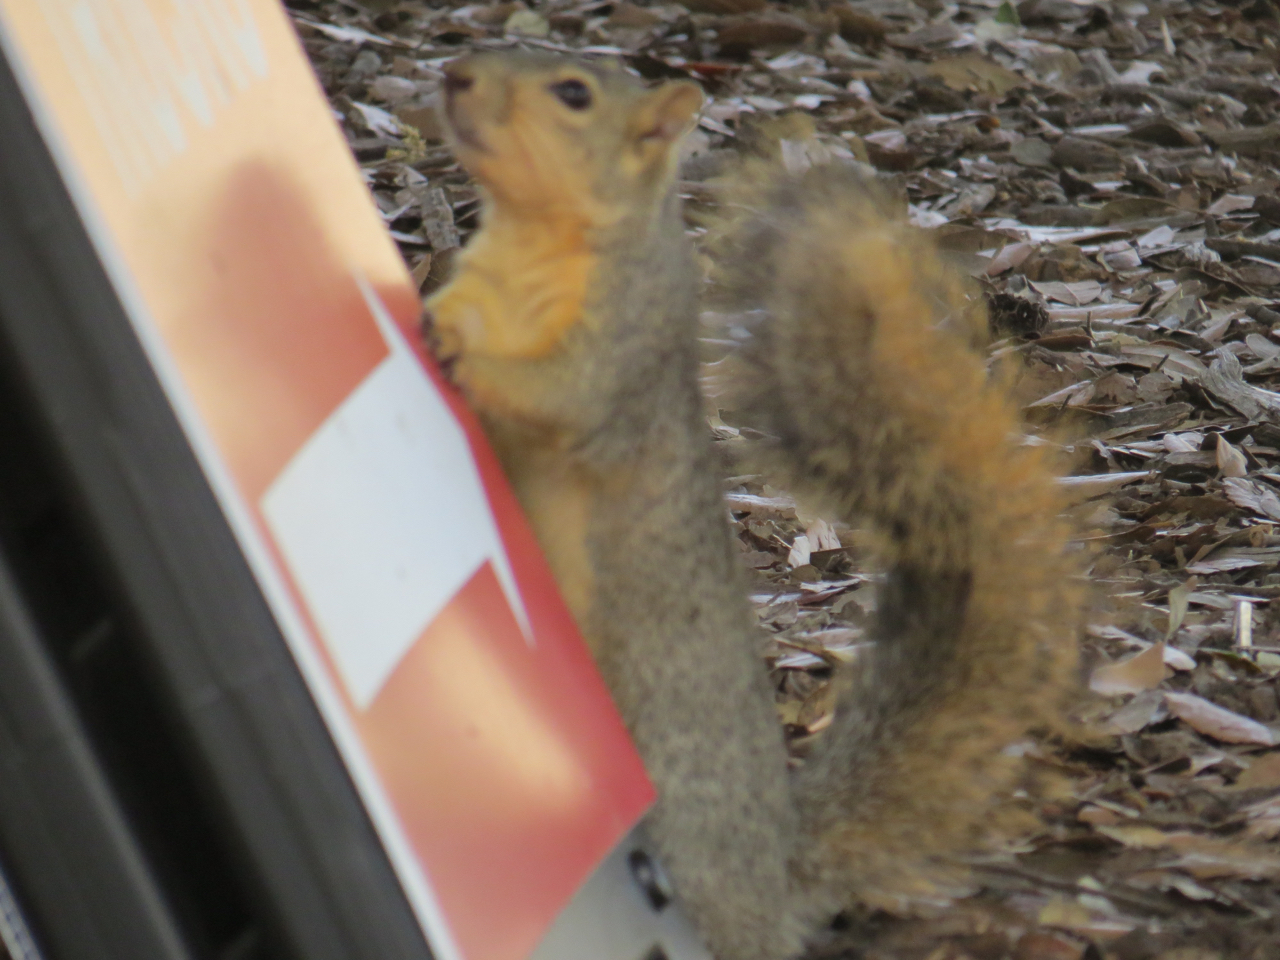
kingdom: Animalia
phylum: Chordata
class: Mammalia
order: Rodentia
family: Sciuridae
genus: Sciurus
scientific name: Sciurus niger
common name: Fox squirrel
